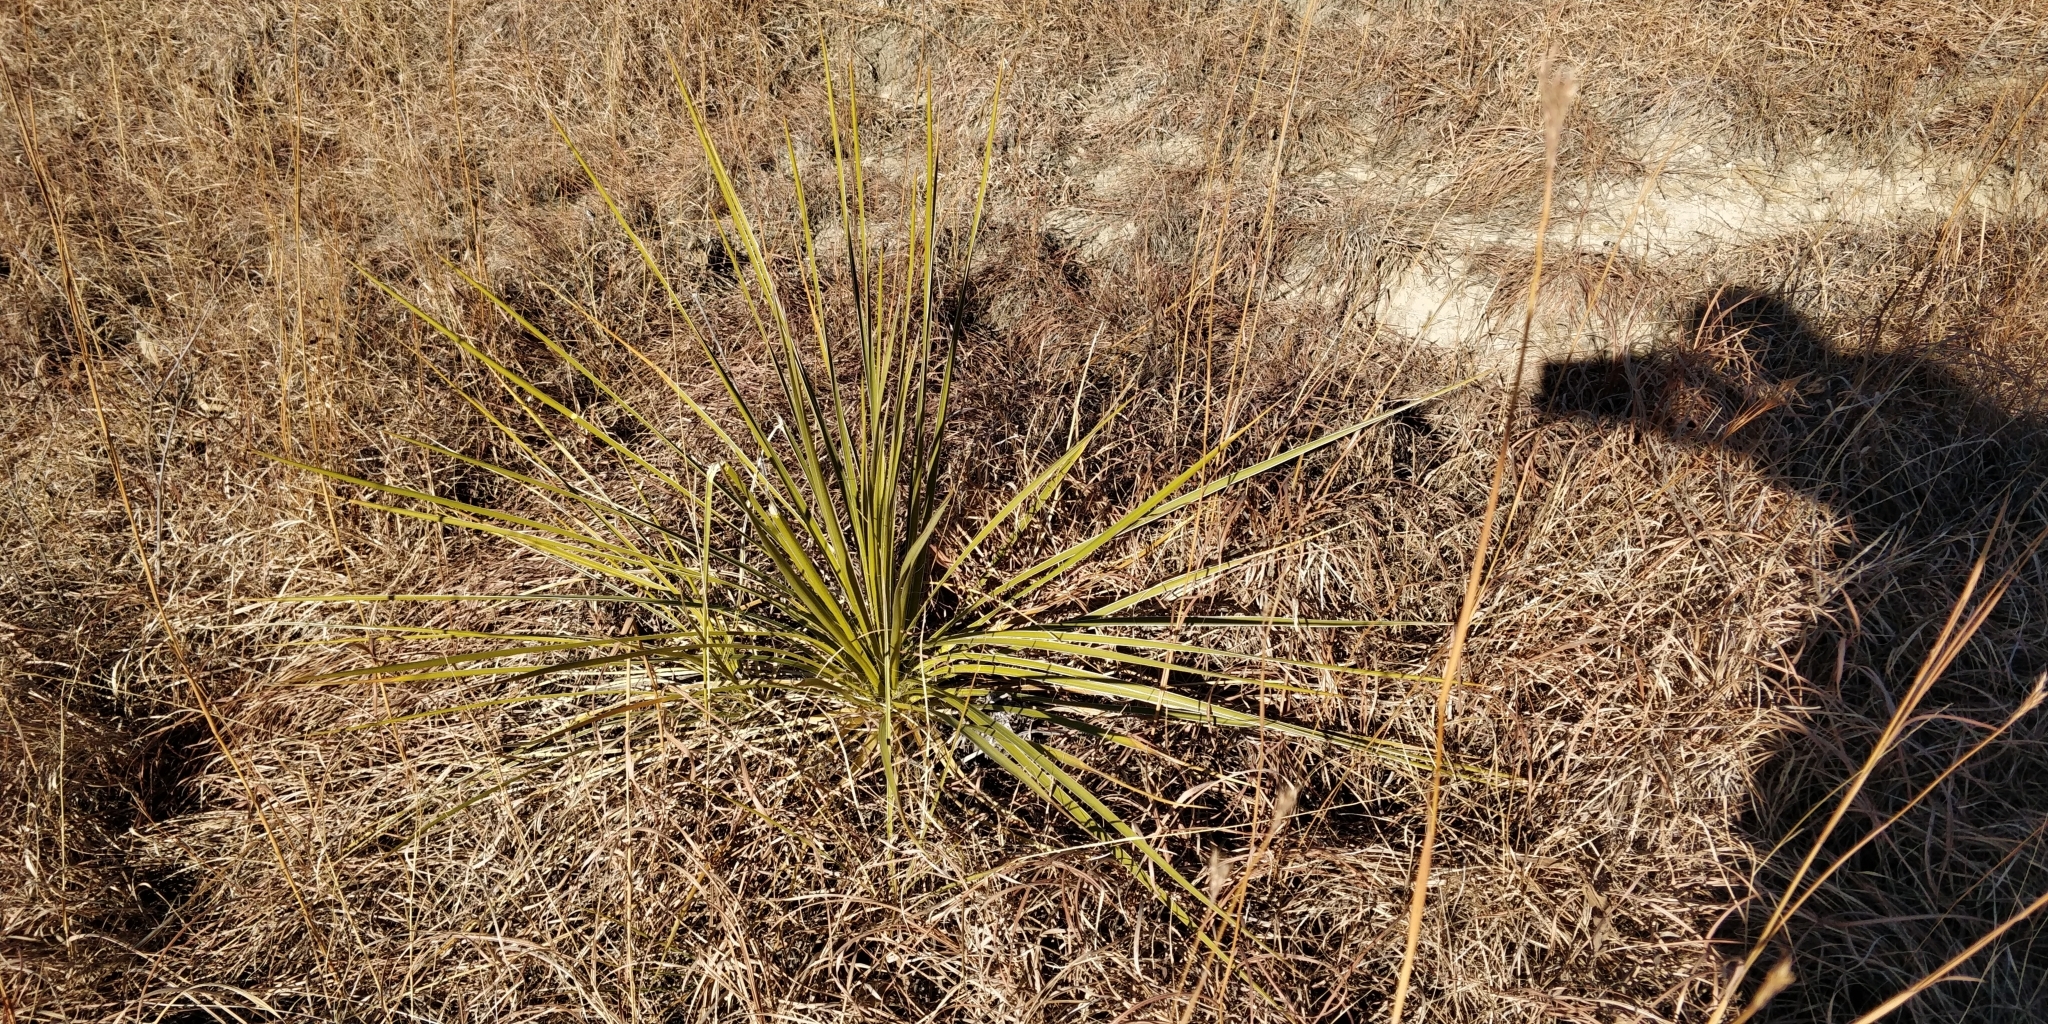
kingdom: Plantae
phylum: Tracheophyta
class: Liliopsida
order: Asparagales
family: Asparagaceae
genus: Yucca
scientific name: Yucca glauca
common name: Great plains yucca
